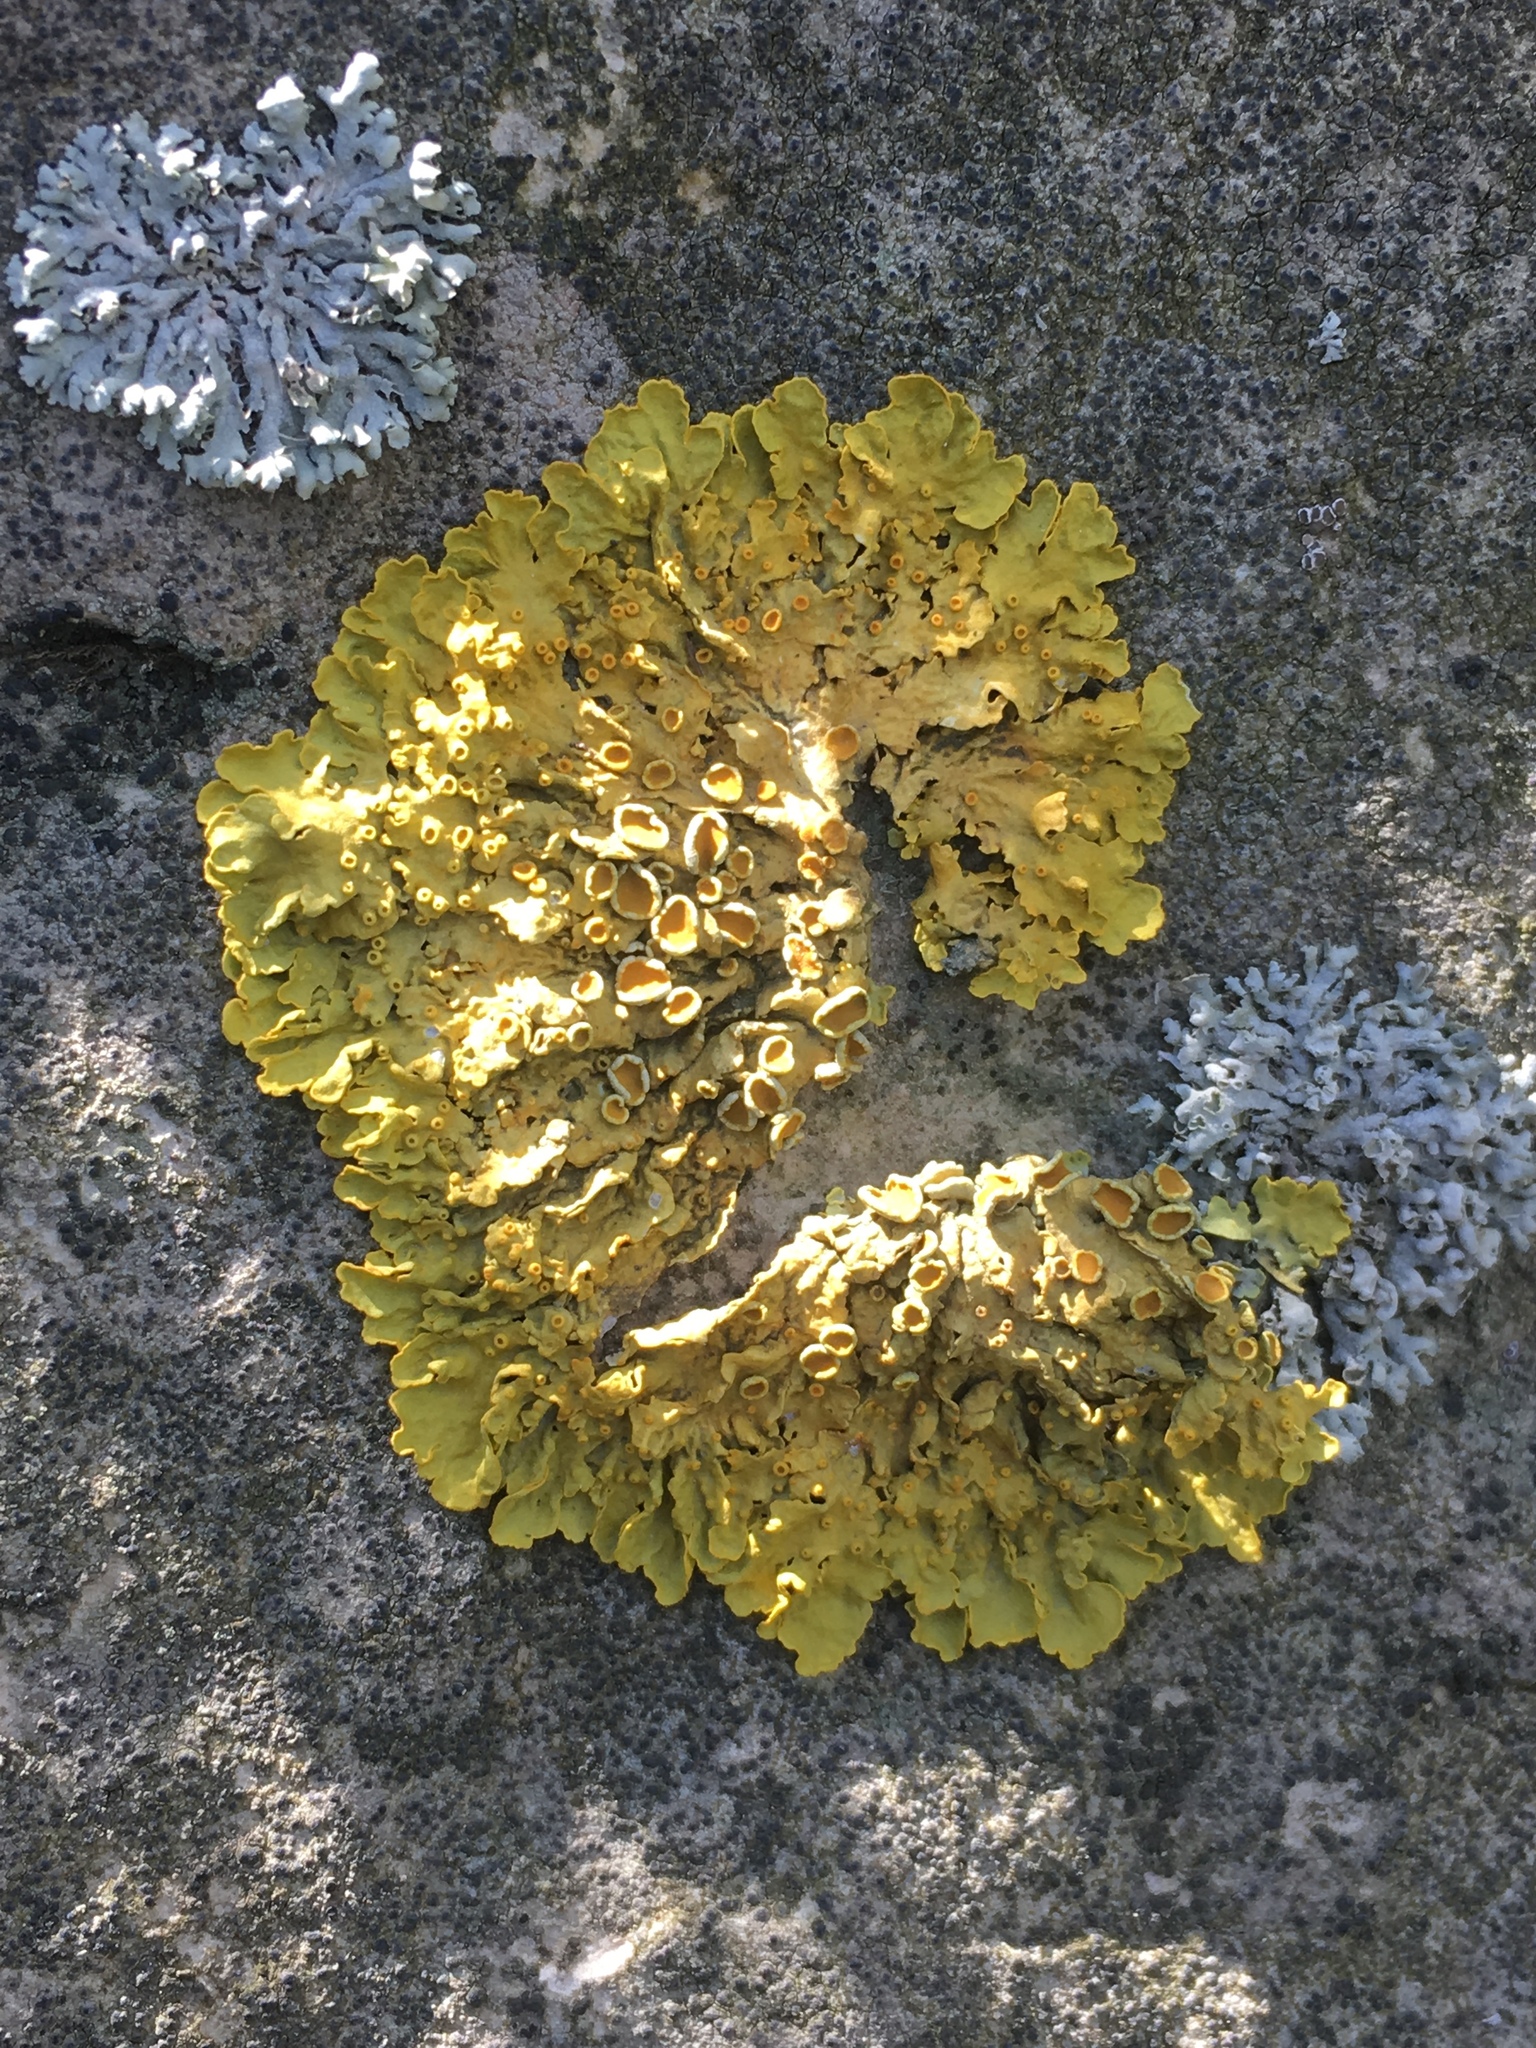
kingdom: Fungi
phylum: Ascomycota
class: Lecanoromycetes
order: Teloschistales
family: Teloschistaceae
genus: Xanthoria
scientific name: Xanthoria parietina
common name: Common orange lichen
